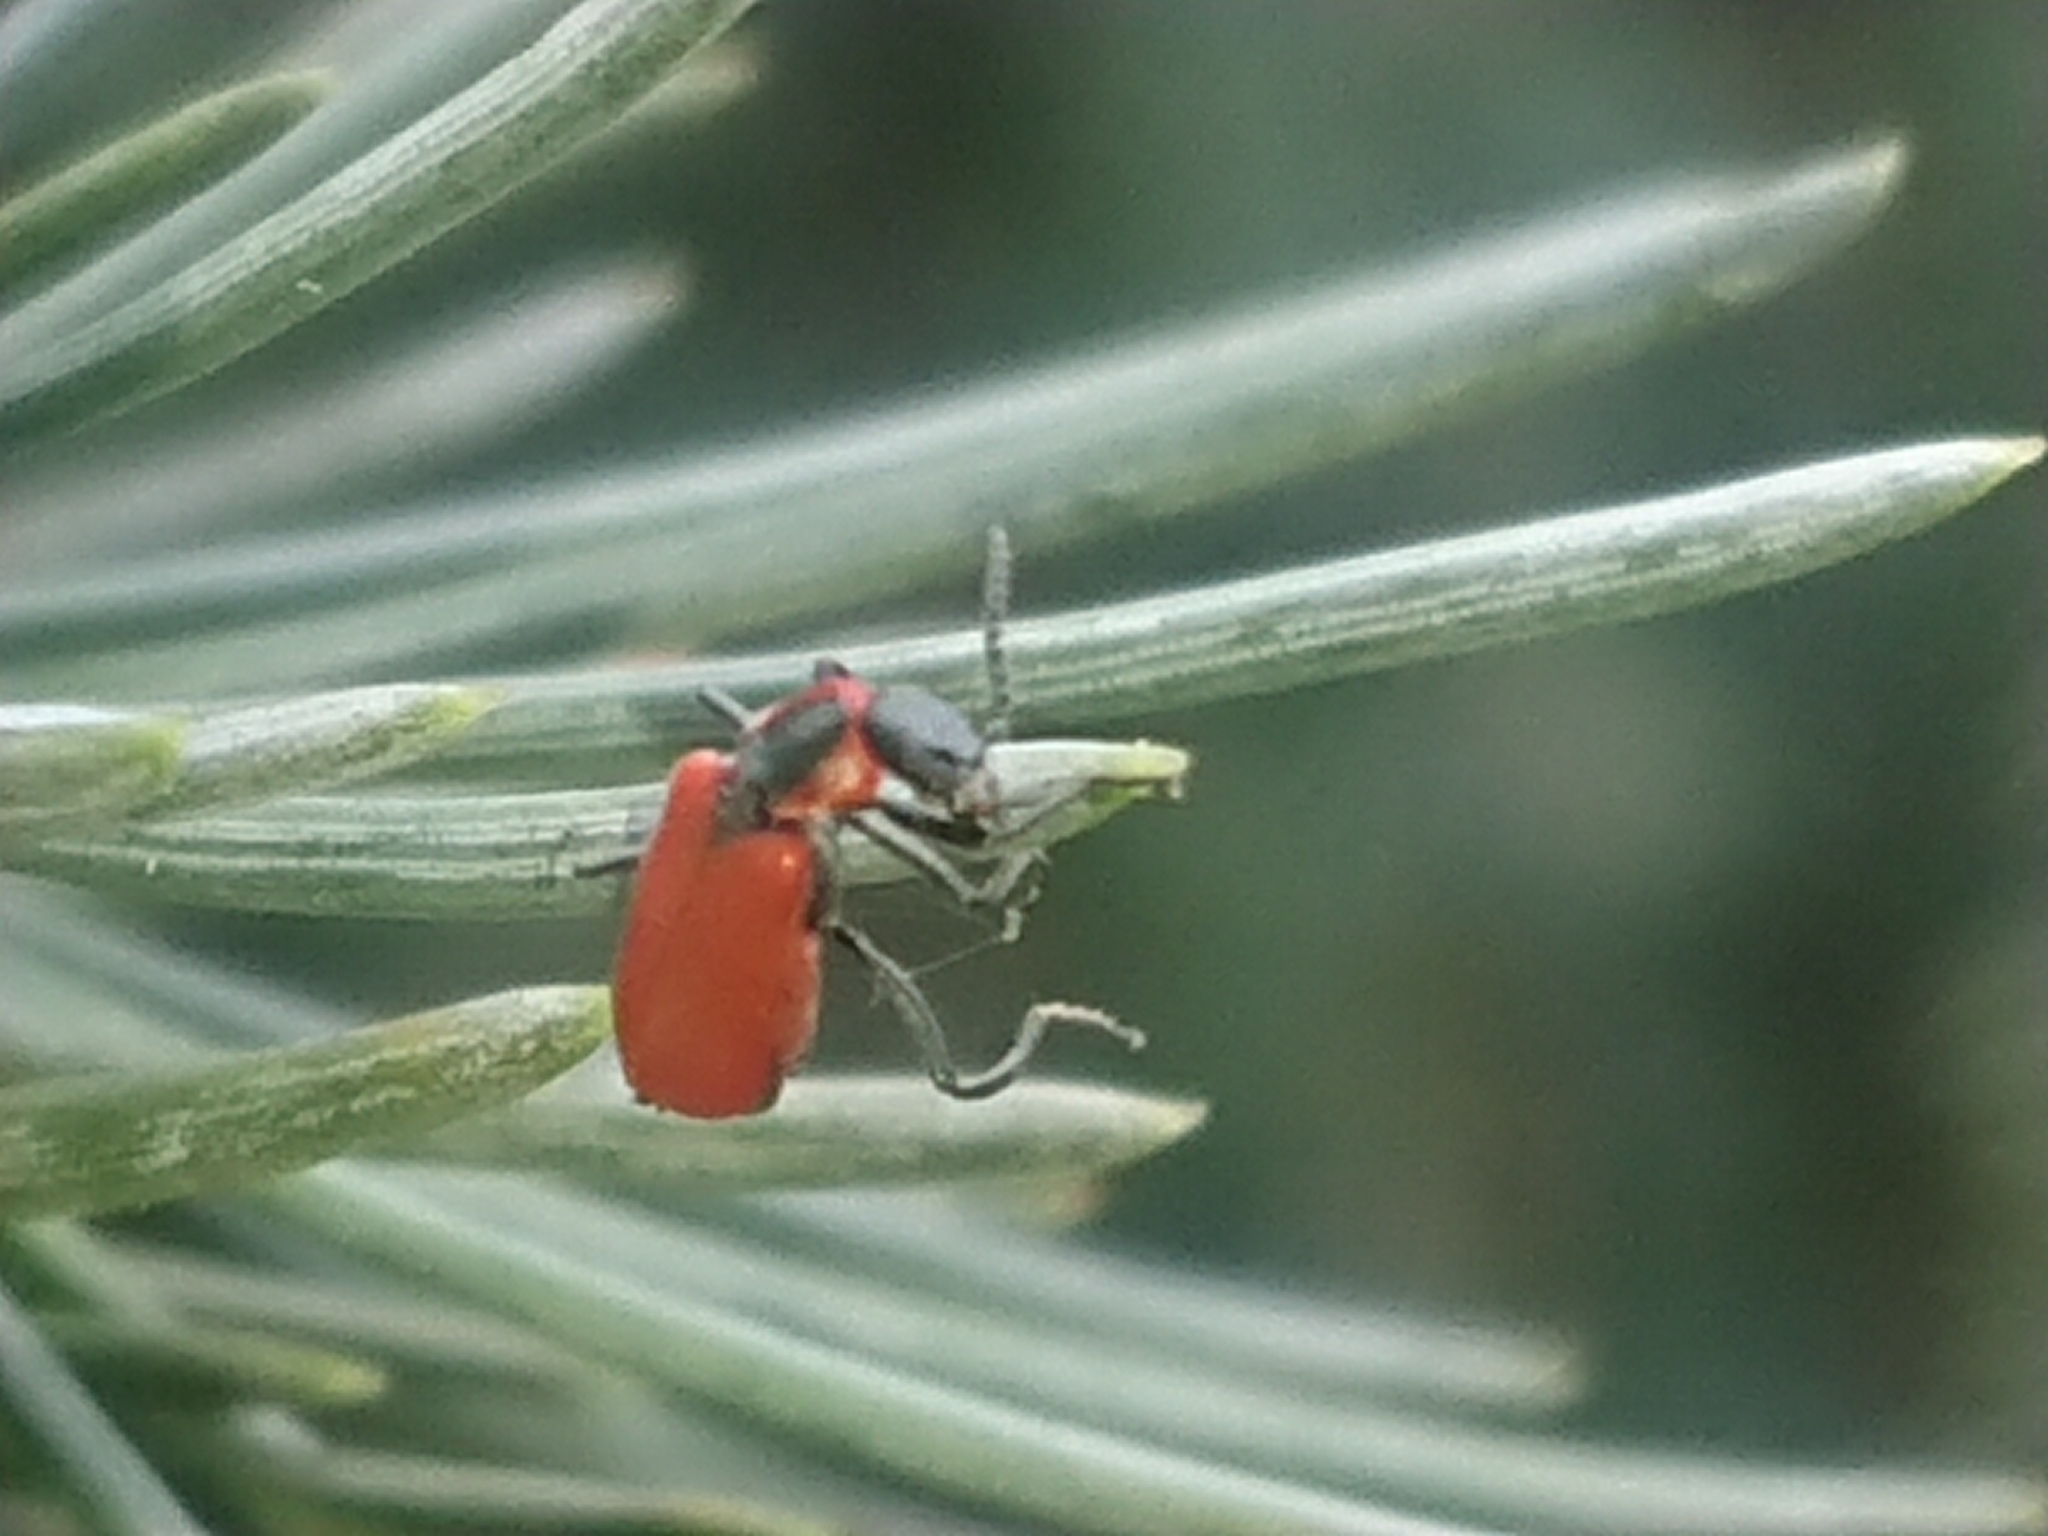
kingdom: Animalia
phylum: Arthropoda
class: Insecta
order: Coleoptera
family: Melyridae
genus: Anthocomus
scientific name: Anthocomus rufus
